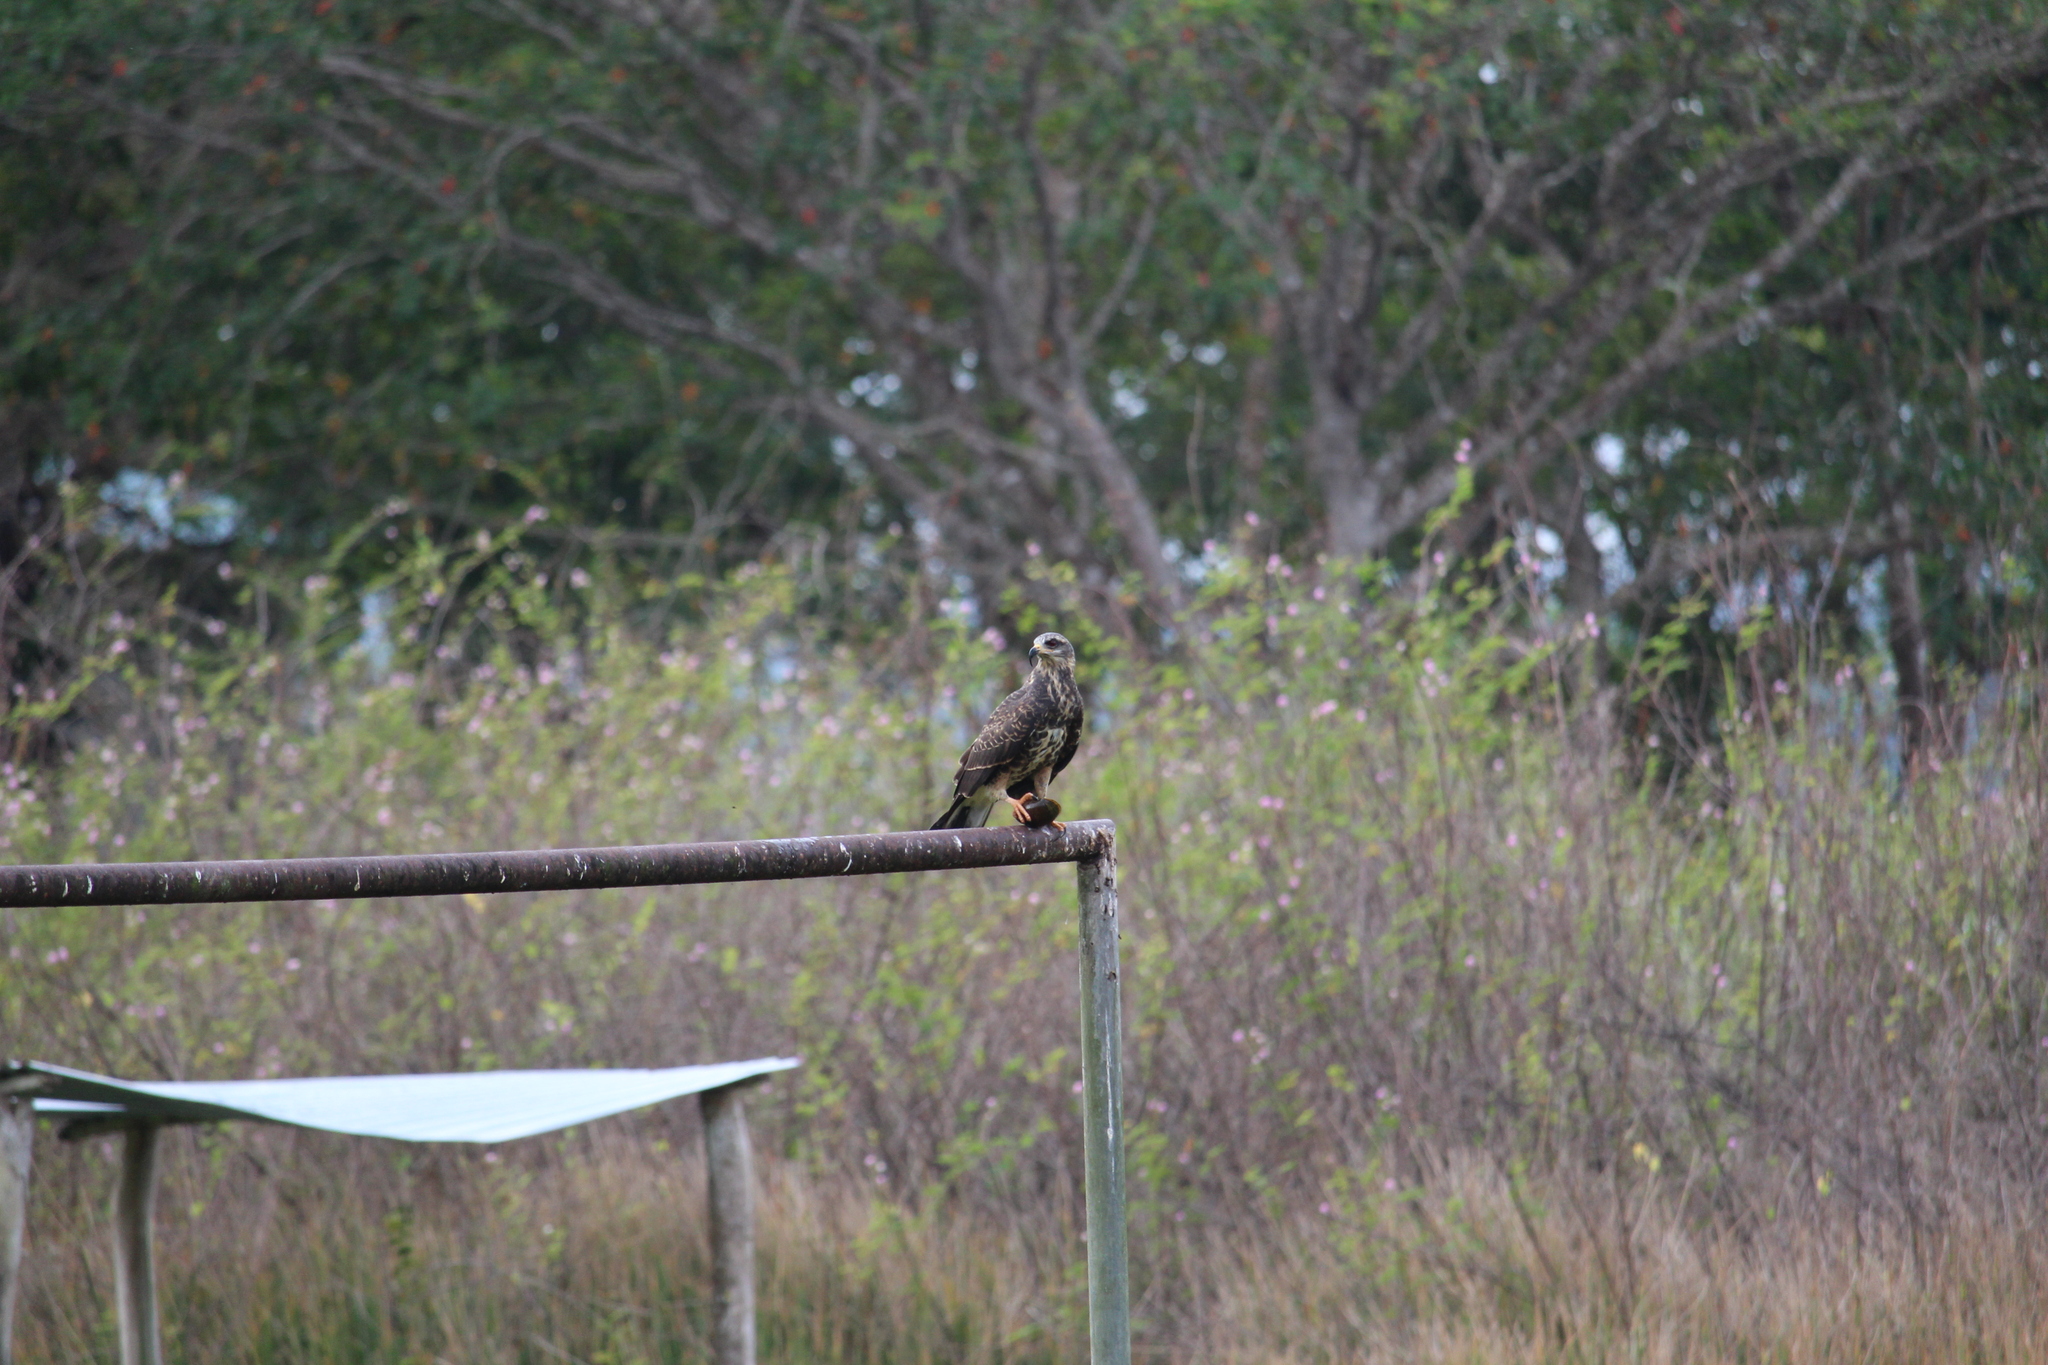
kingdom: Animalia
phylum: Chordata
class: Aves
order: Accipitriformes
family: Accipitridae
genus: Rostrhamus
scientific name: Rostrhamus sociabilis
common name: Snail kite
